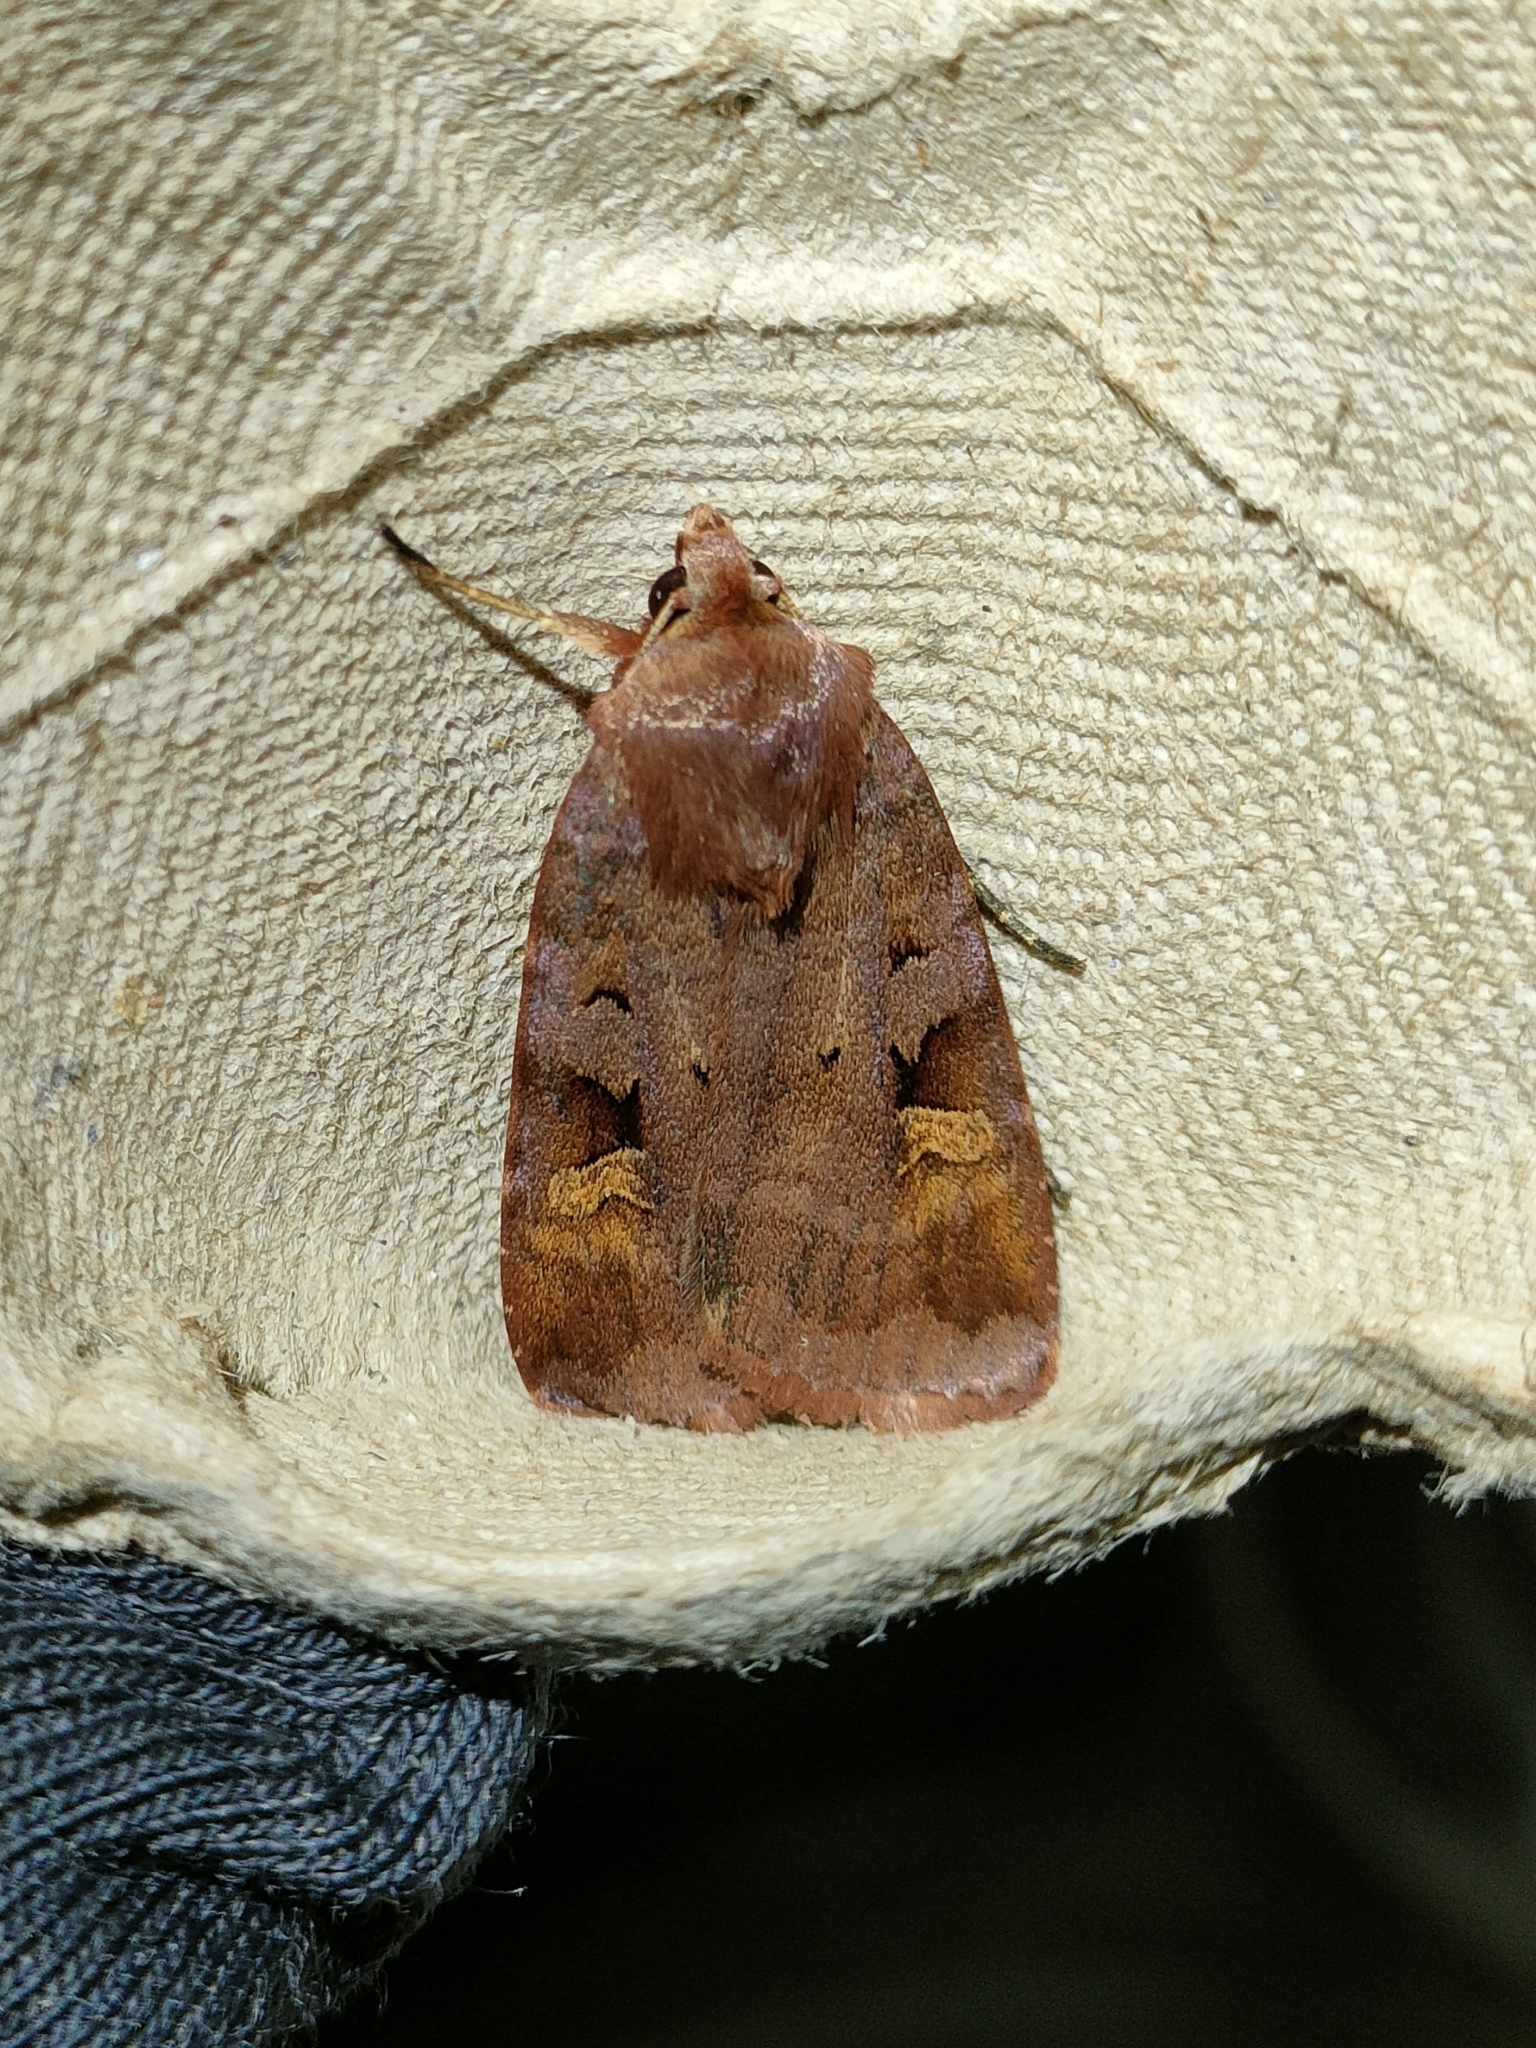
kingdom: Animalia
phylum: Arthropoda
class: Insecta
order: Lepidoptera
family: Noctuidae
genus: Diarsia
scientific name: Diarsia brunnea
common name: Purple clay
